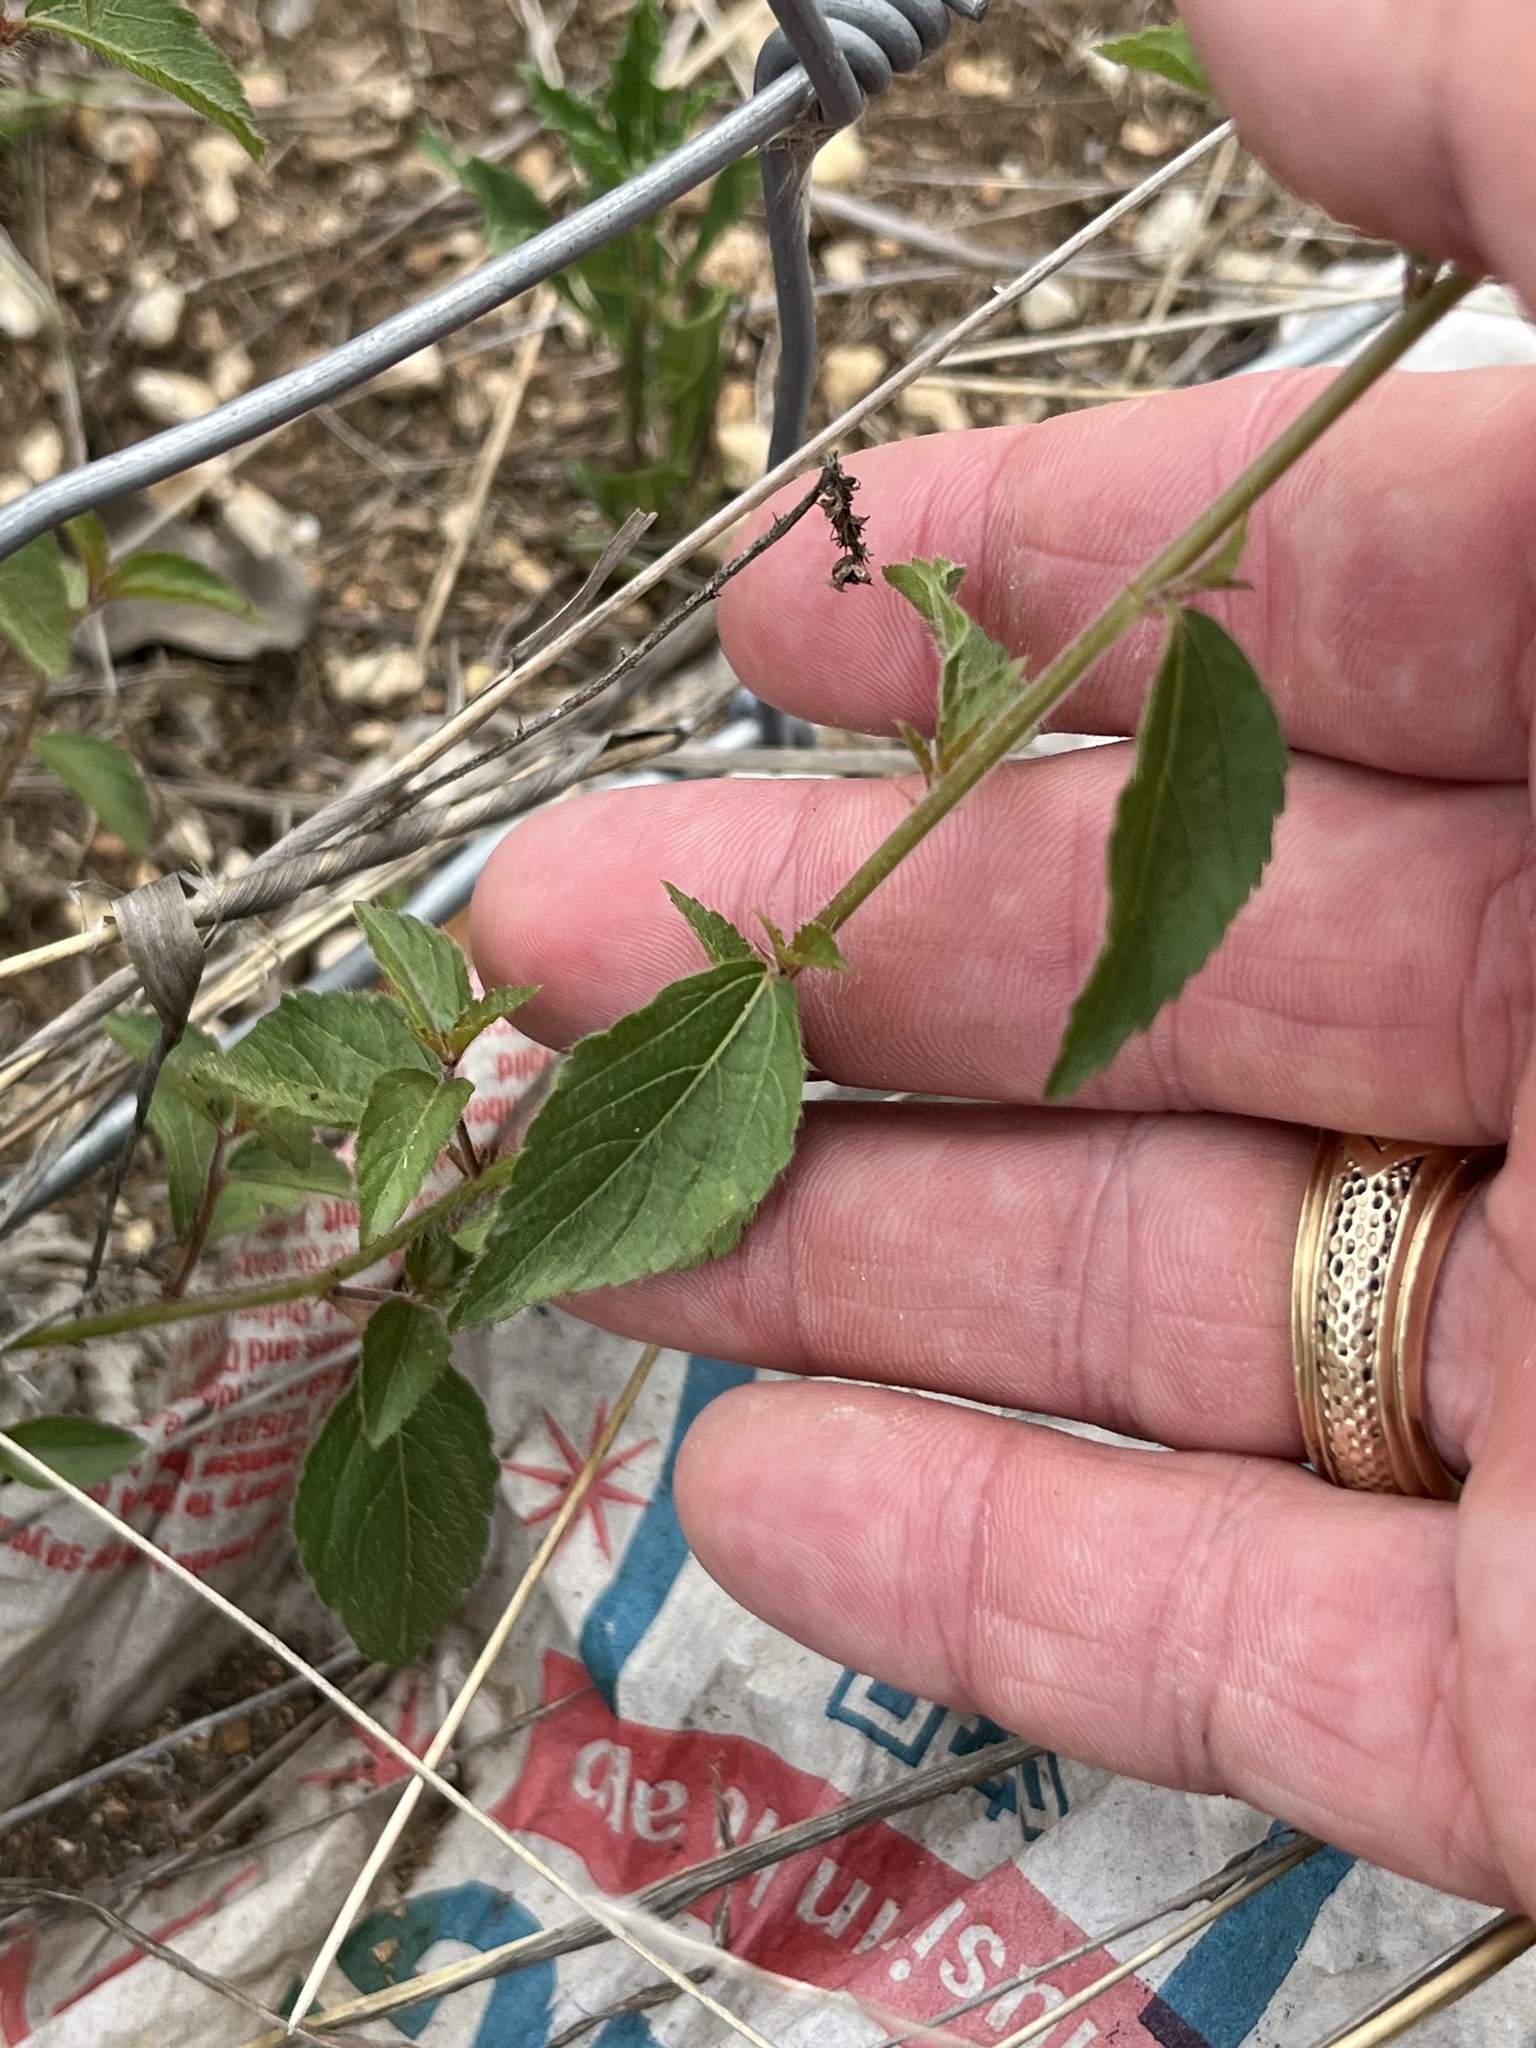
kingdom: Plantae
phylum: Tracheophyta
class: Magnoliopsida
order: Malpighiales
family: Euphorbiaceae
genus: Acalypha
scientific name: Acalypha phleoides
